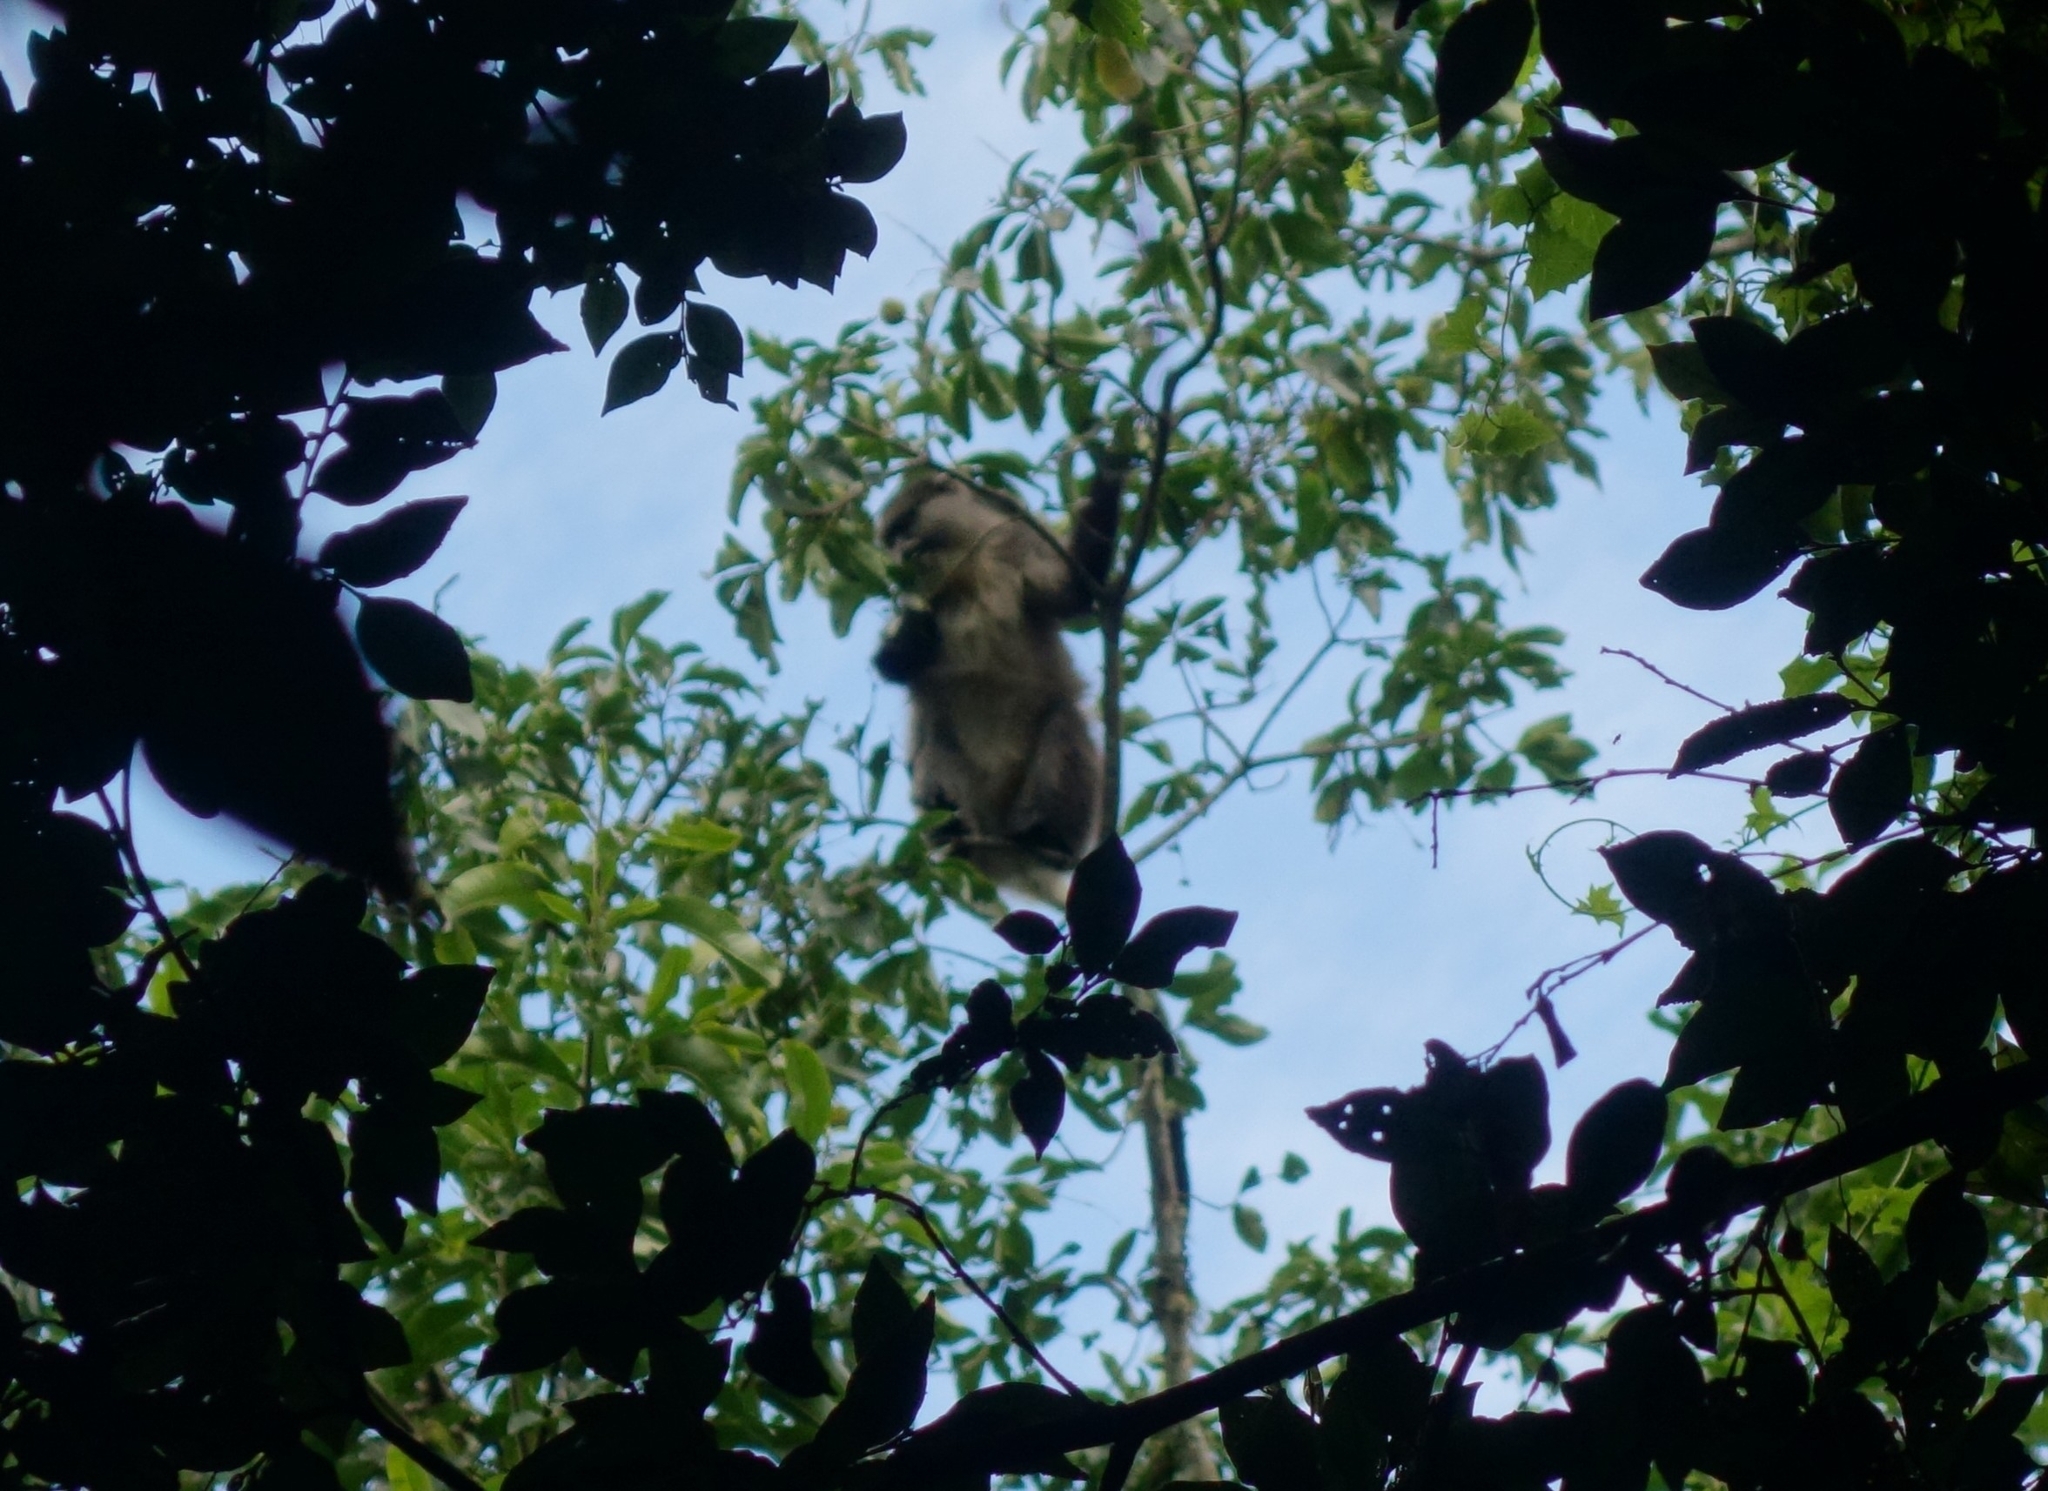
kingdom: Animalia
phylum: Chordata
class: Mammalia
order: Primates
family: Cercopithecidae
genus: Cercopithecus
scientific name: Cercopithecus mitis
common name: Blue monkey
